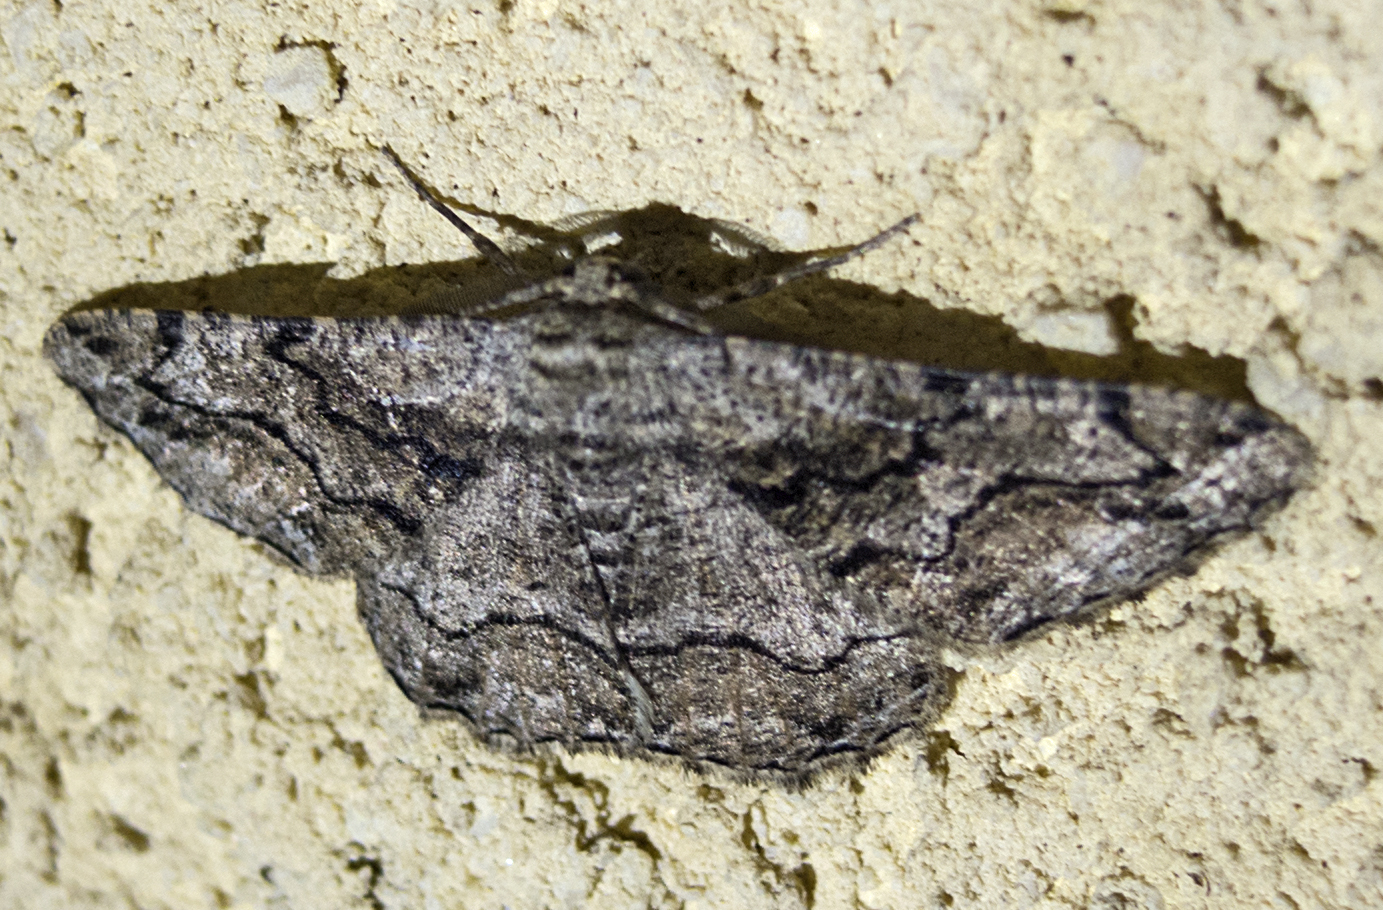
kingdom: Animalia
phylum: Arthropoda
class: Insecta
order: Lepidoptera
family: Geometridae
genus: Synopsia
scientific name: Synopsia sociaria
